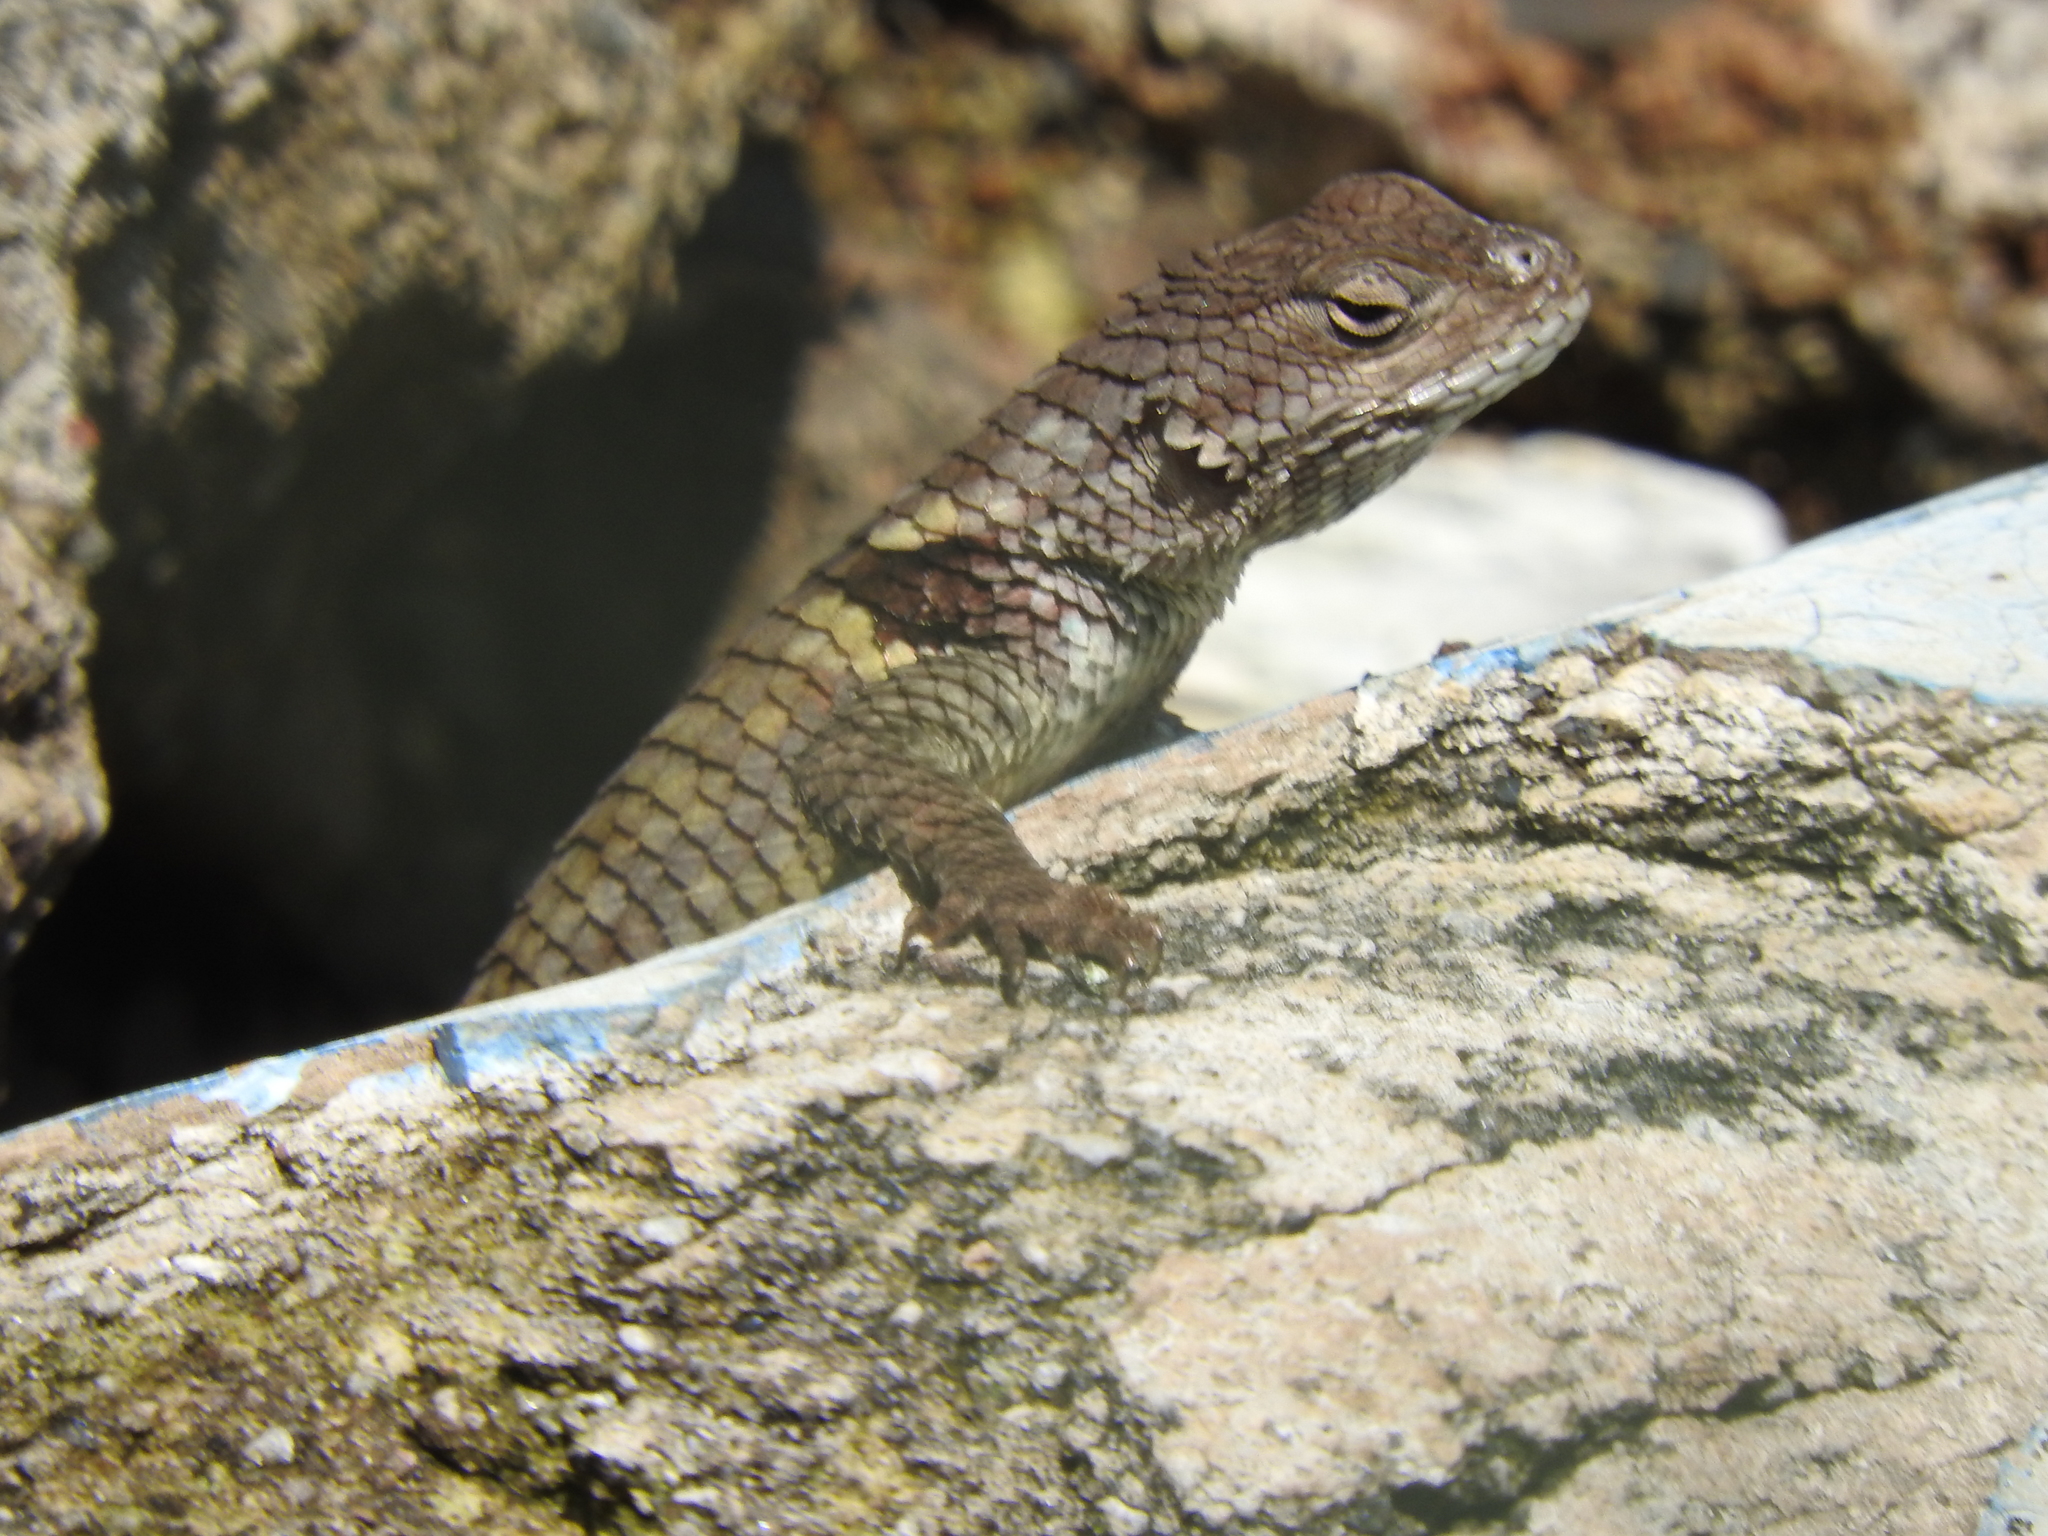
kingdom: Animalia
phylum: Chordata
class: Squamata
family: Phrynosomatidae
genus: Sceloporus
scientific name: Sceloporus torquatus
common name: Central plateau torquate lizard [melanogaster]
